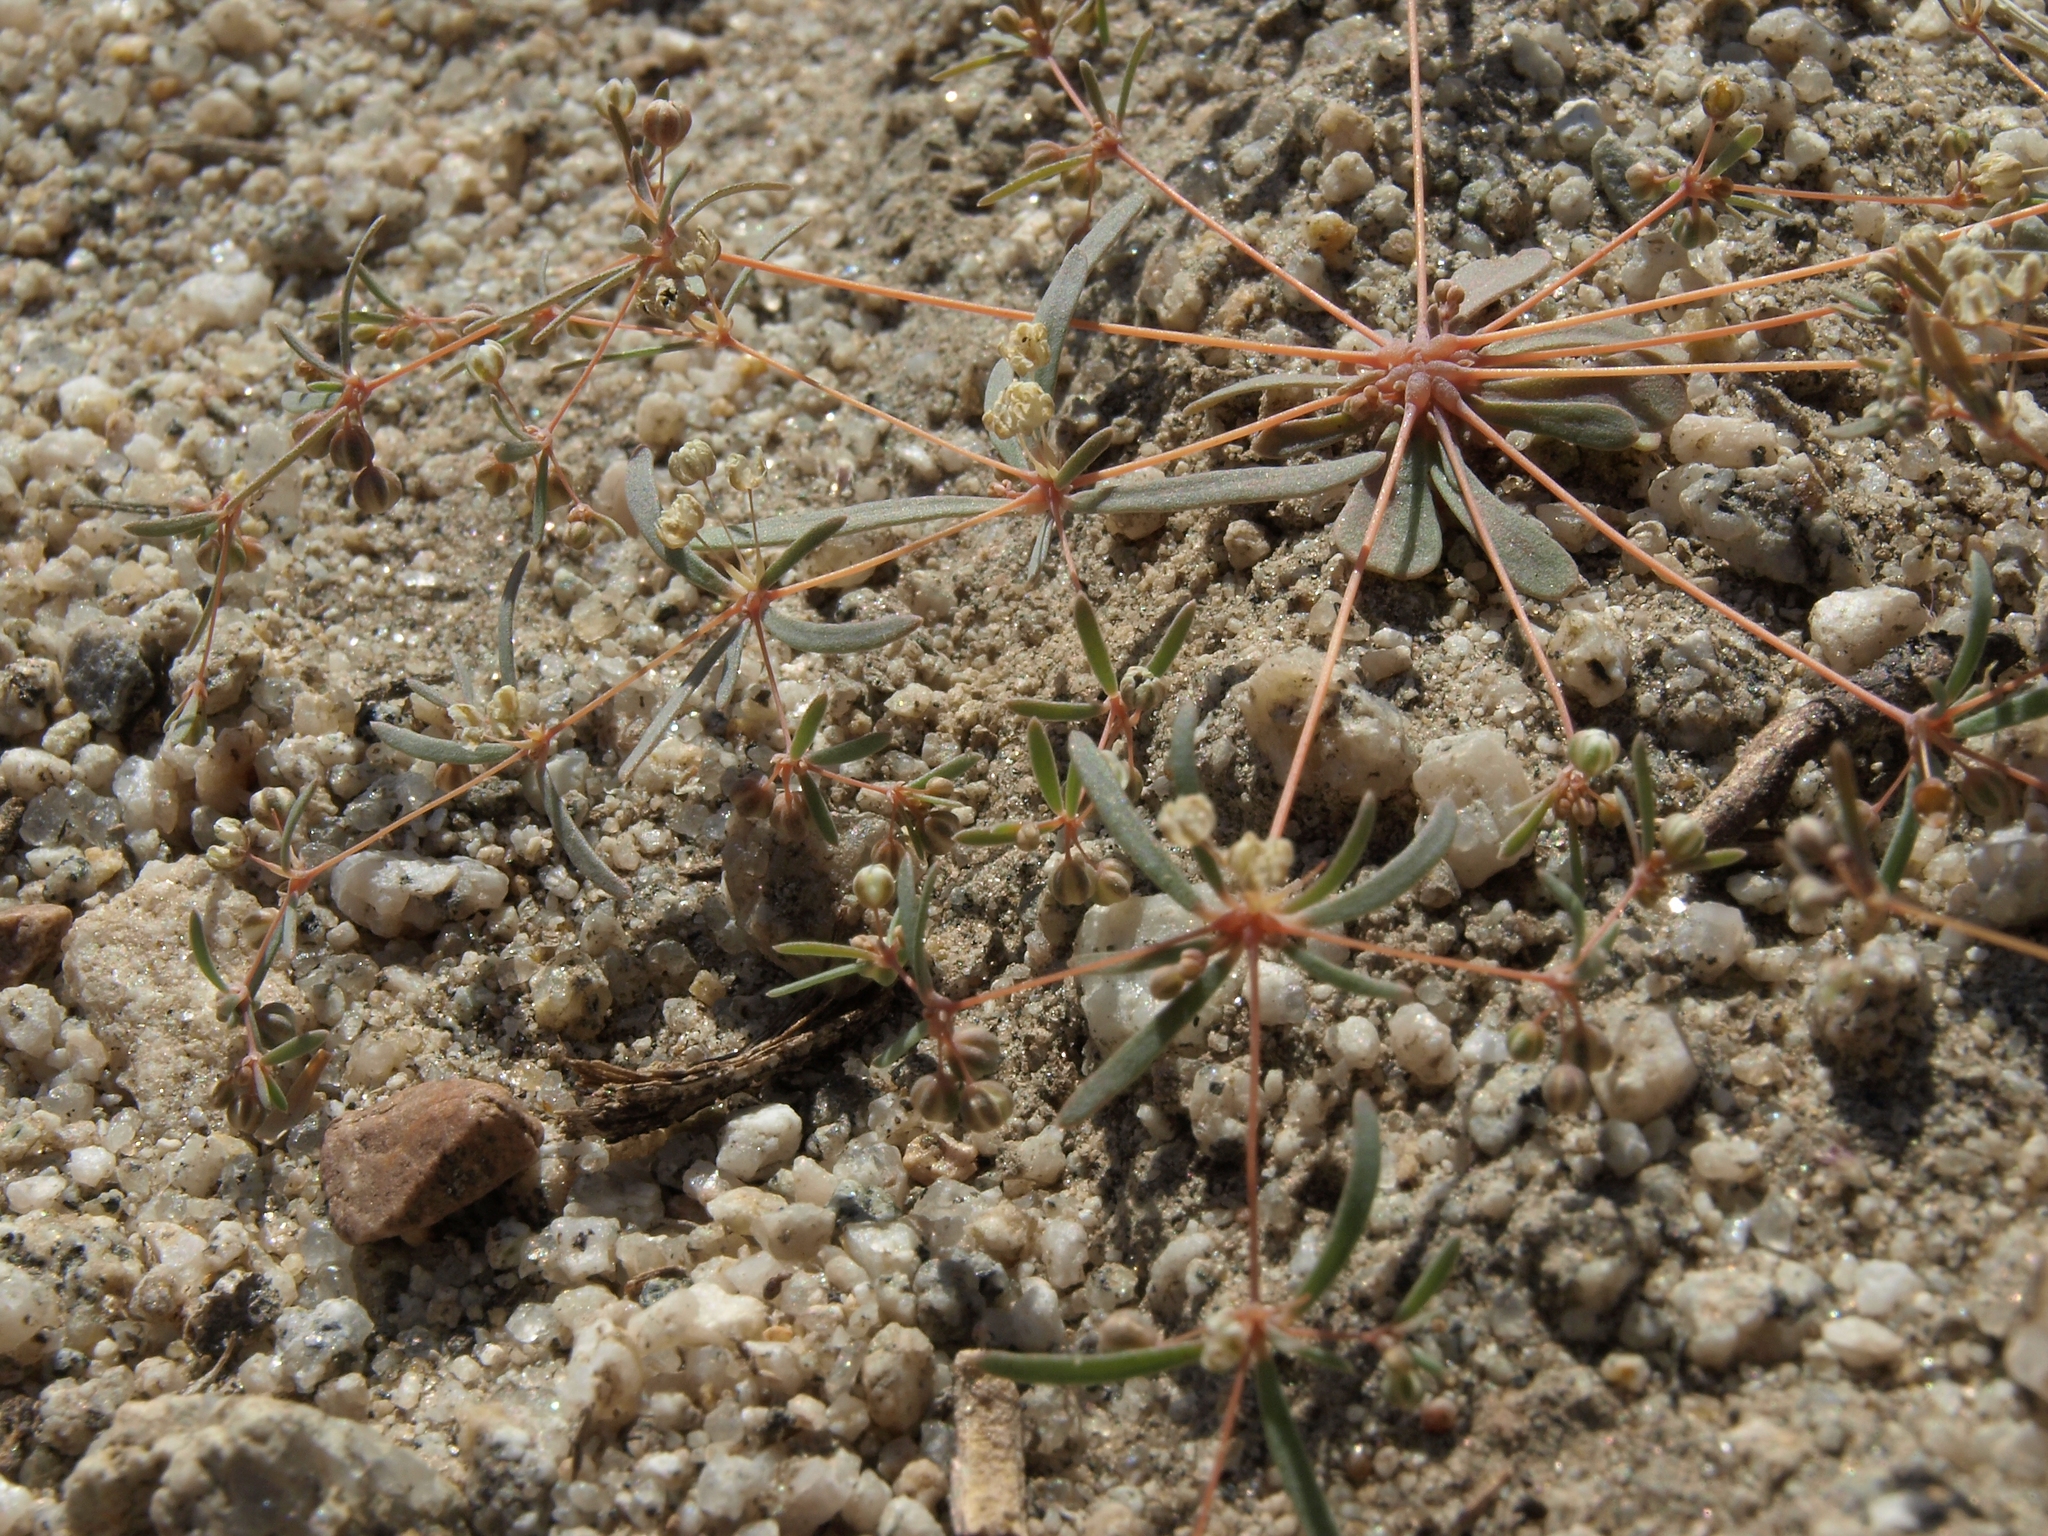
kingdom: Plantae
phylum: Tracheophyta
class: Magnoliopsida
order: Caryophyllales
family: Molluginaceae
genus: Hypertelis
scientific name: Hypertelis umbellata
